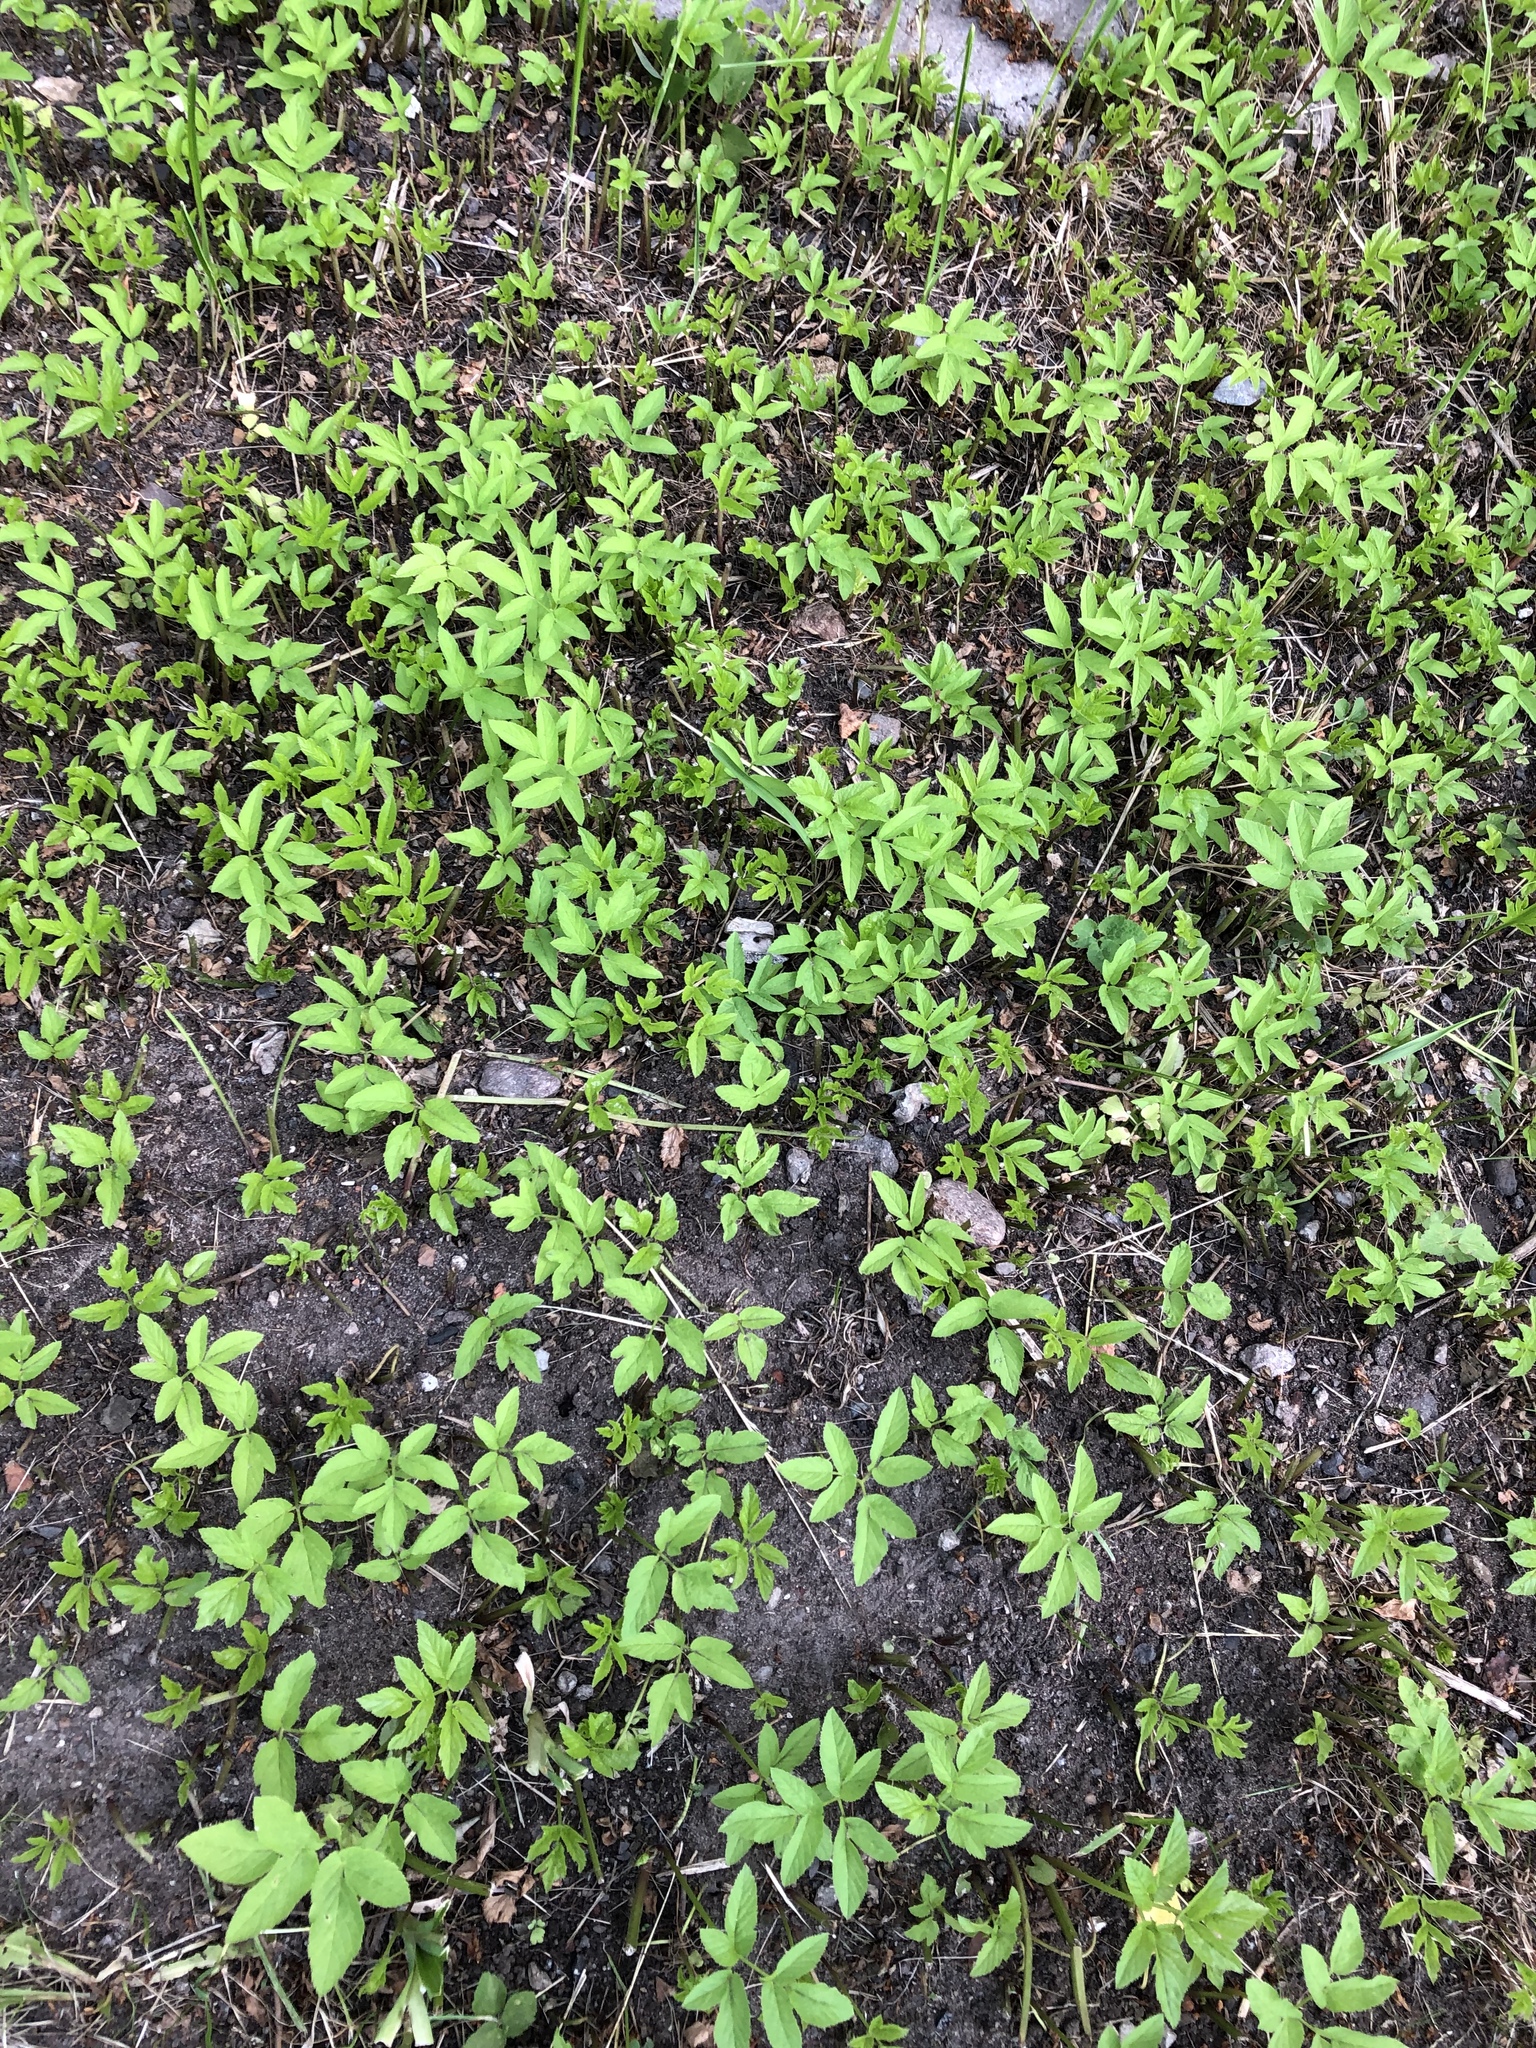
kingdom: Plantae
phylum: Tracheophyta
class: Magnoliopsida
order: Apiales
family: Apiaceae
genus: Aegopodium
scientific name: Aegopodium podagraria
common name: Ground-elder
